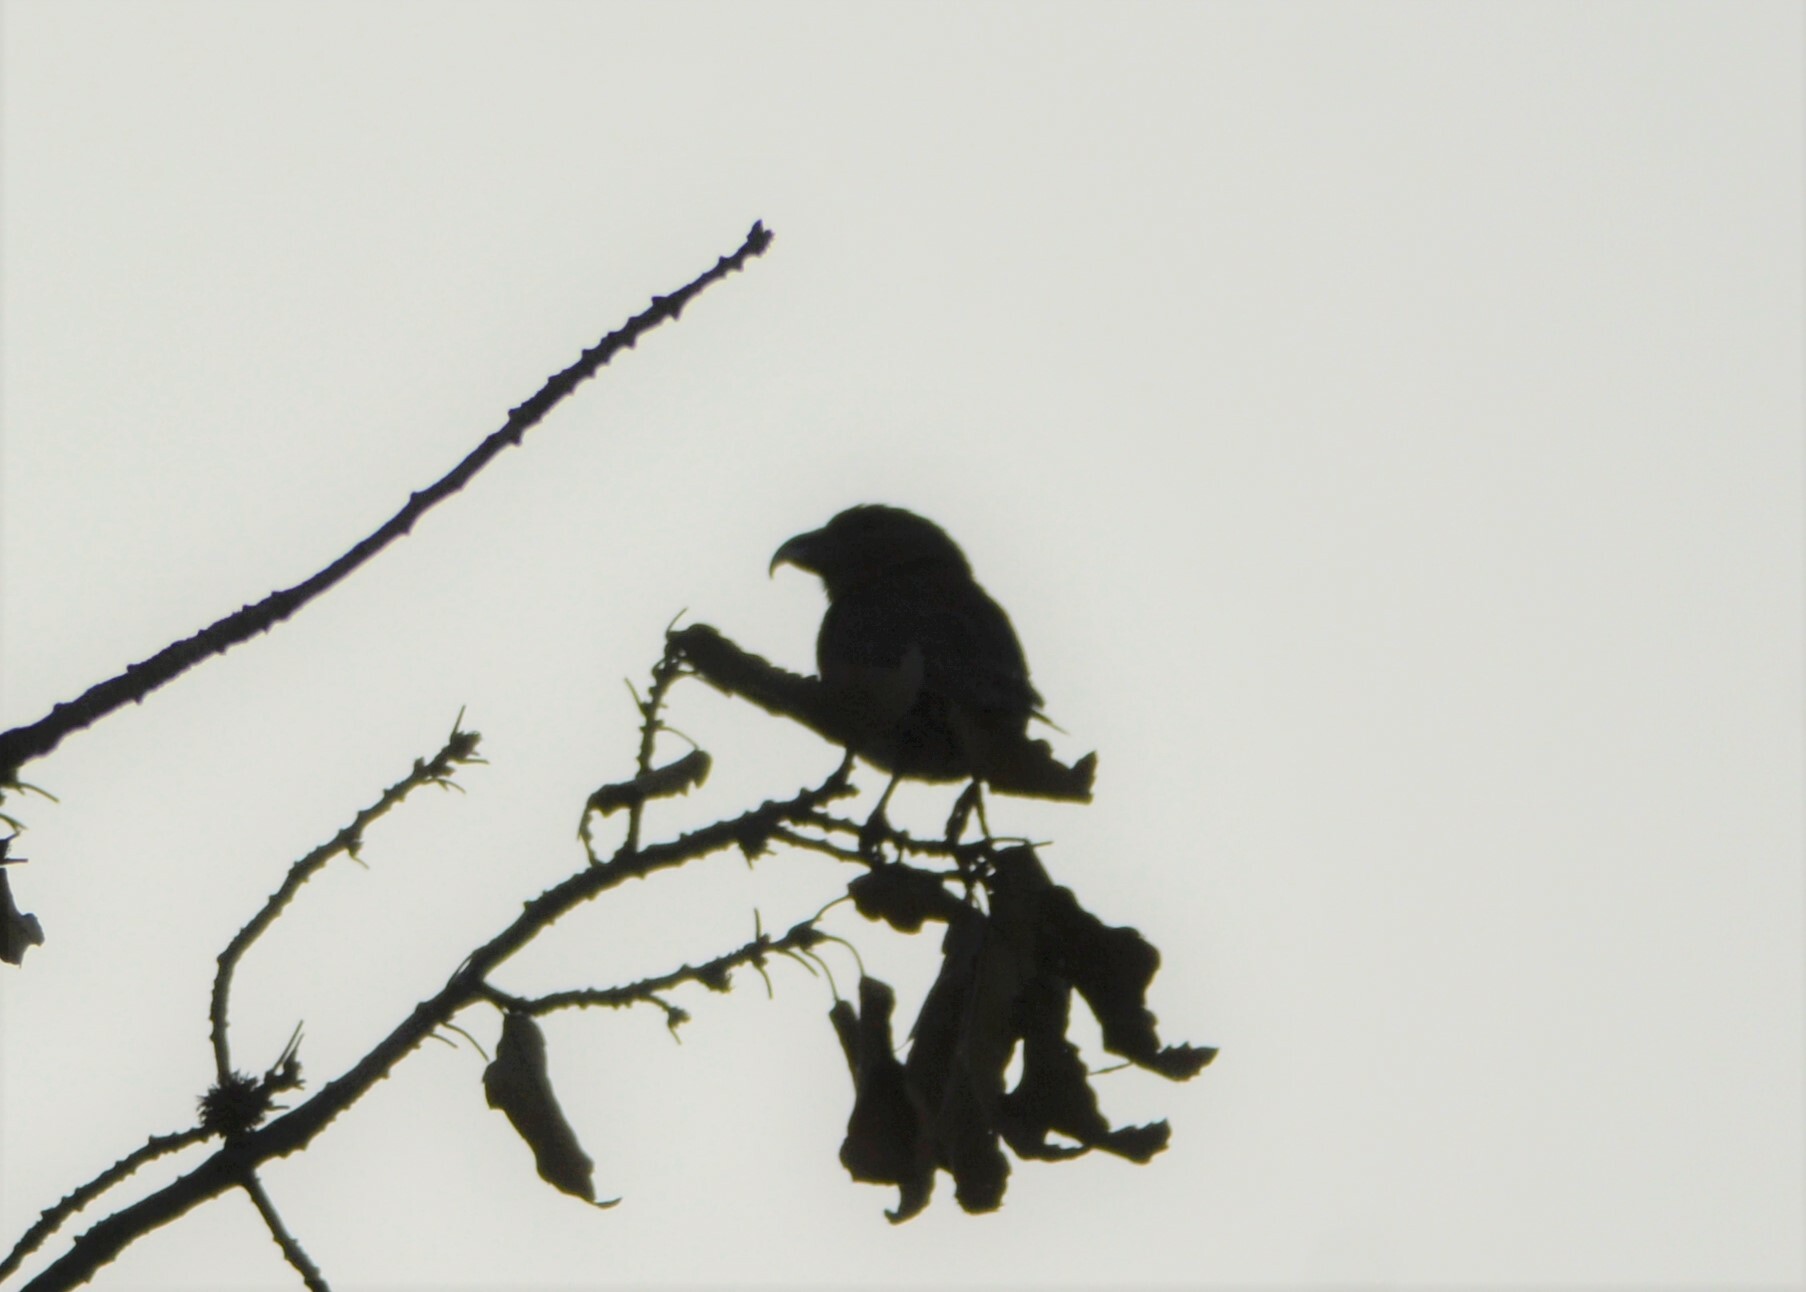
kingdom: Animalia
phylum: Chordata
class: Aves
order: Passeriformes
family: Fringillidae
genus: Loxia
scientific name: Loxia curvirostra
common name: Red crossbill
